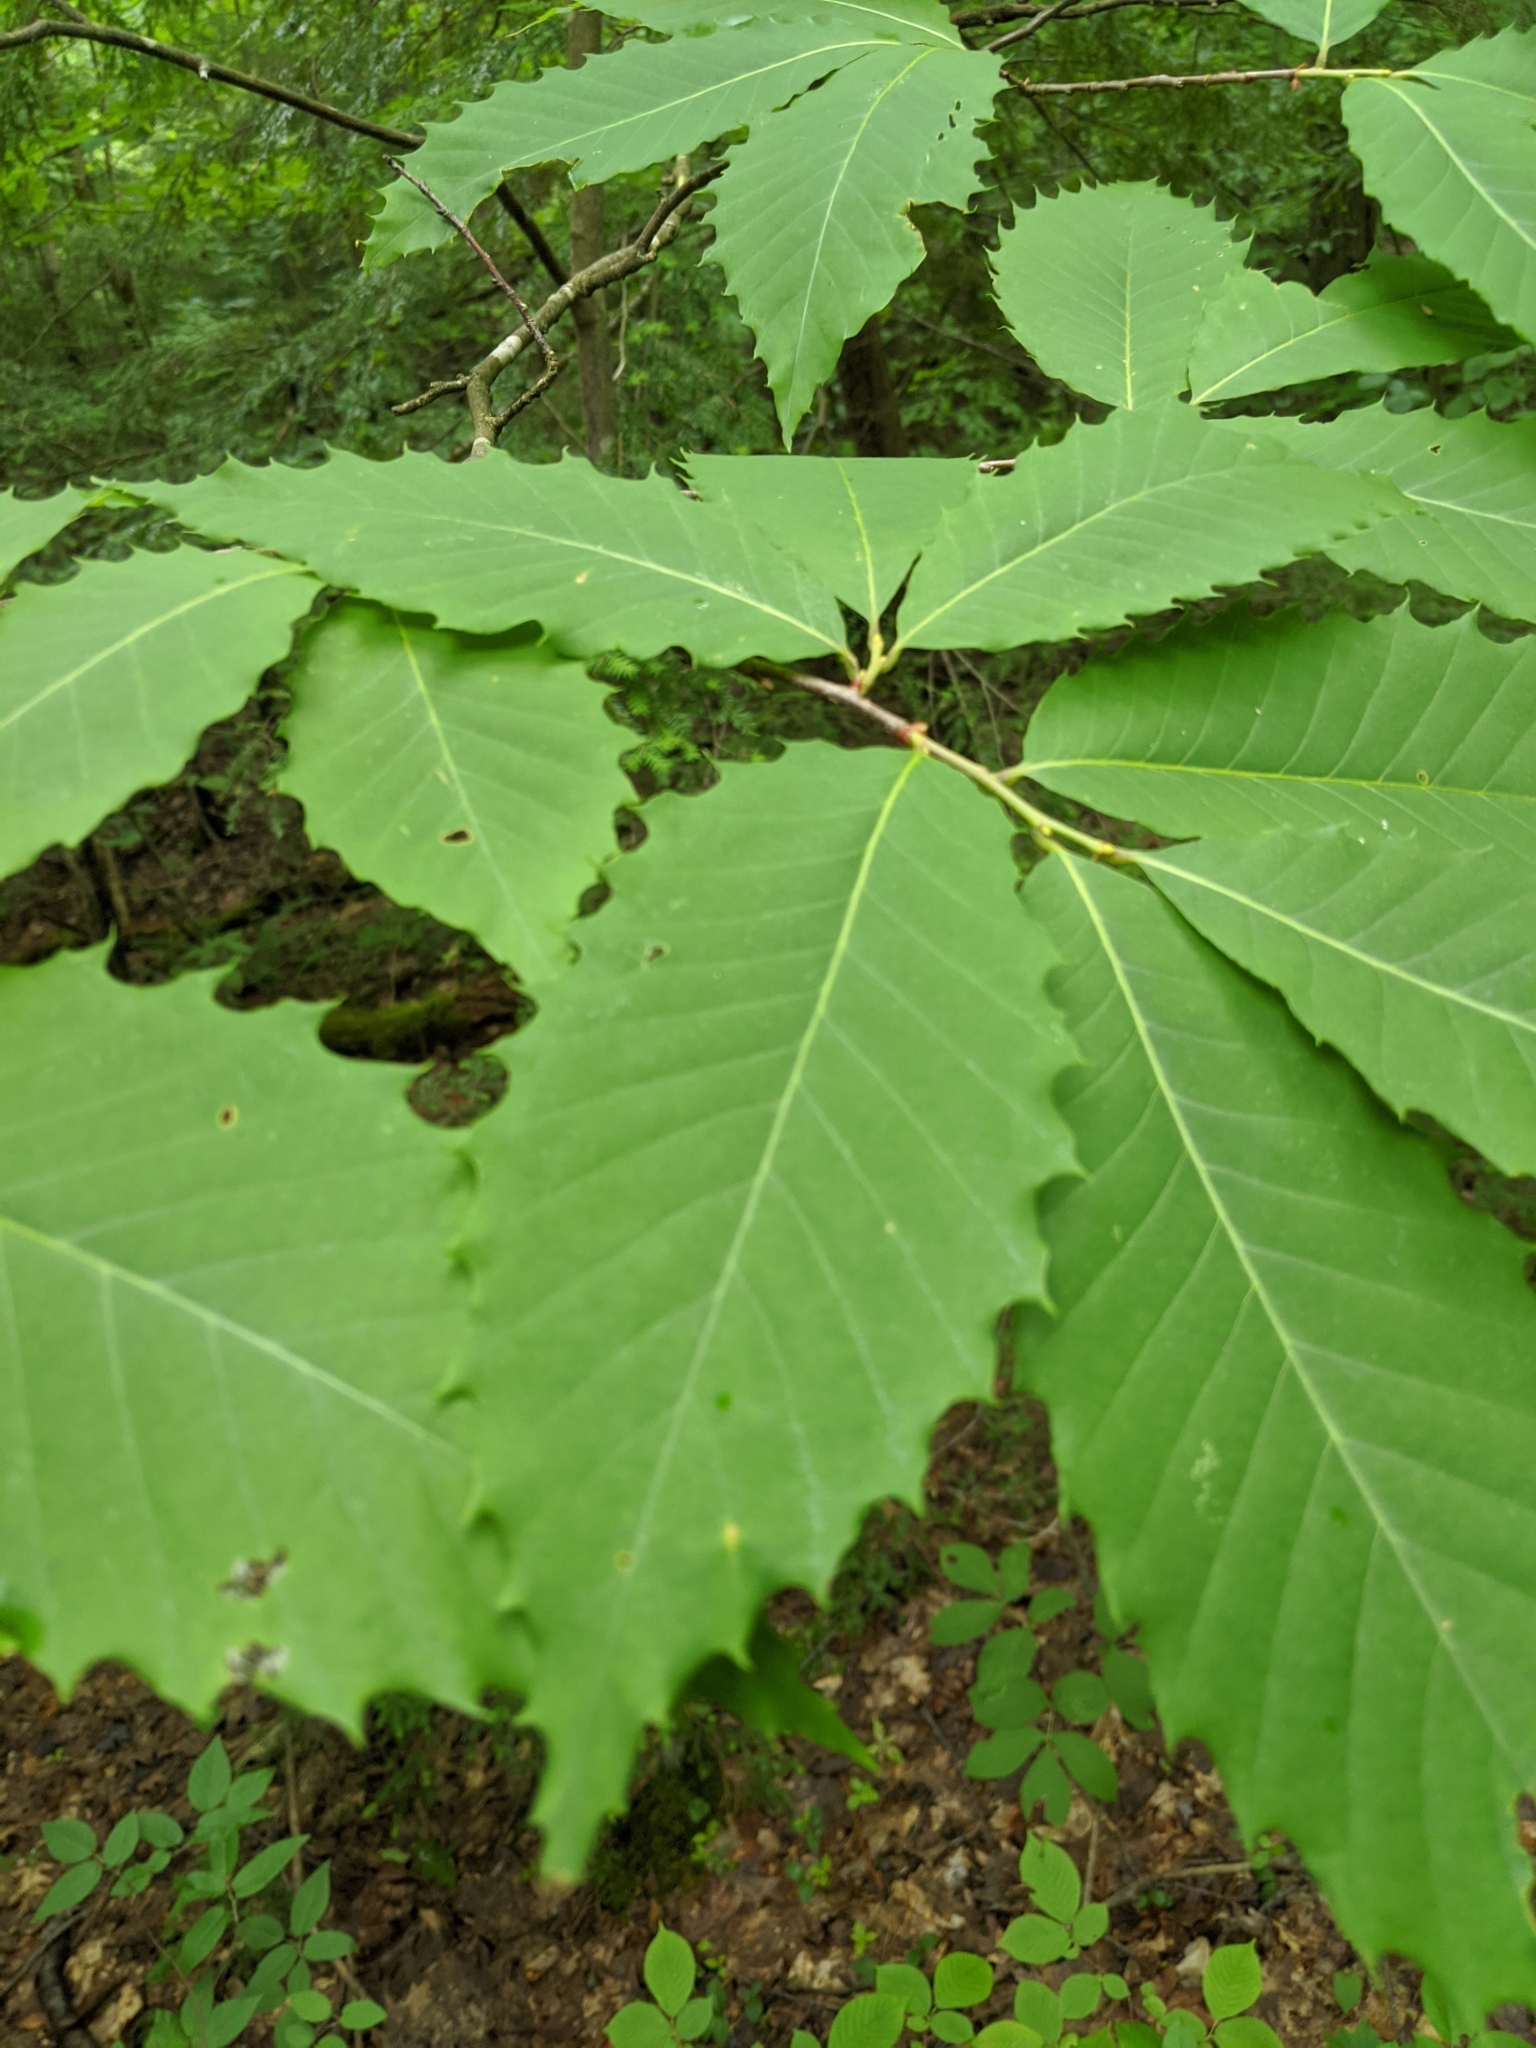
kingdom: Plantae
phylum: Tracheophyta
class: Magnoliopsida
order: Fagales
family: Fagaceae
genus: Castanea
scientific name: Castanea dentata
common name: American chestnut
